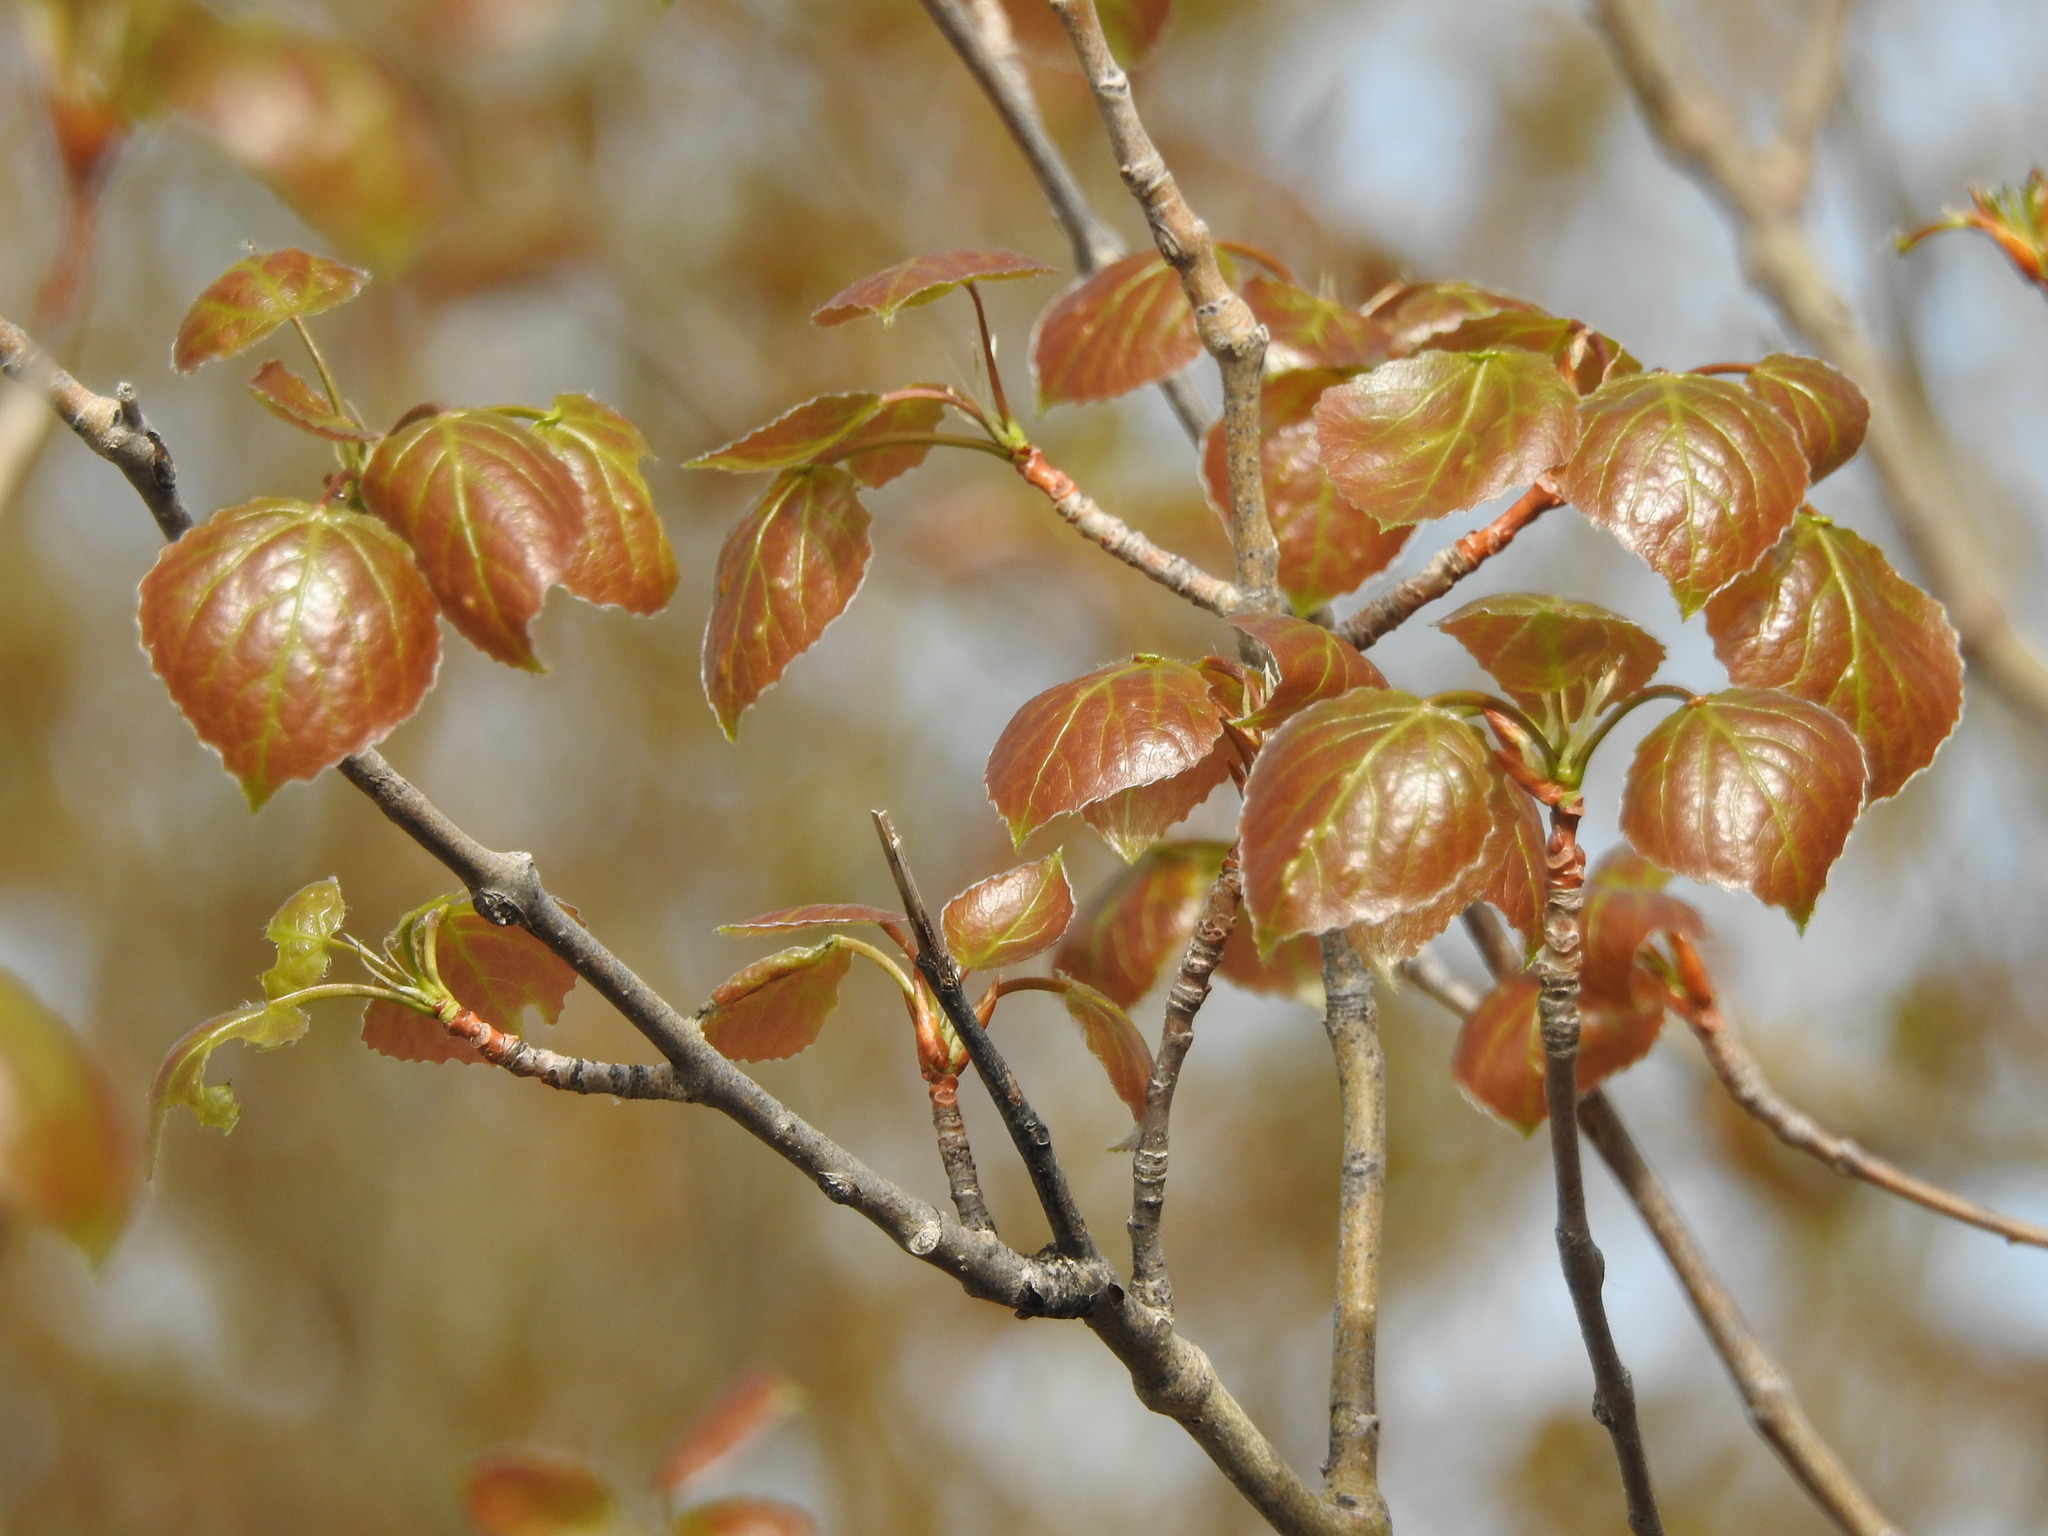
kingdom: Plantae
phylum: Tracheophyta
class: Magnoliopsida
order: Malpighiales
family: Salicaceae
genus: Populus
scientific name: Populus tremula
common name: European aspen
